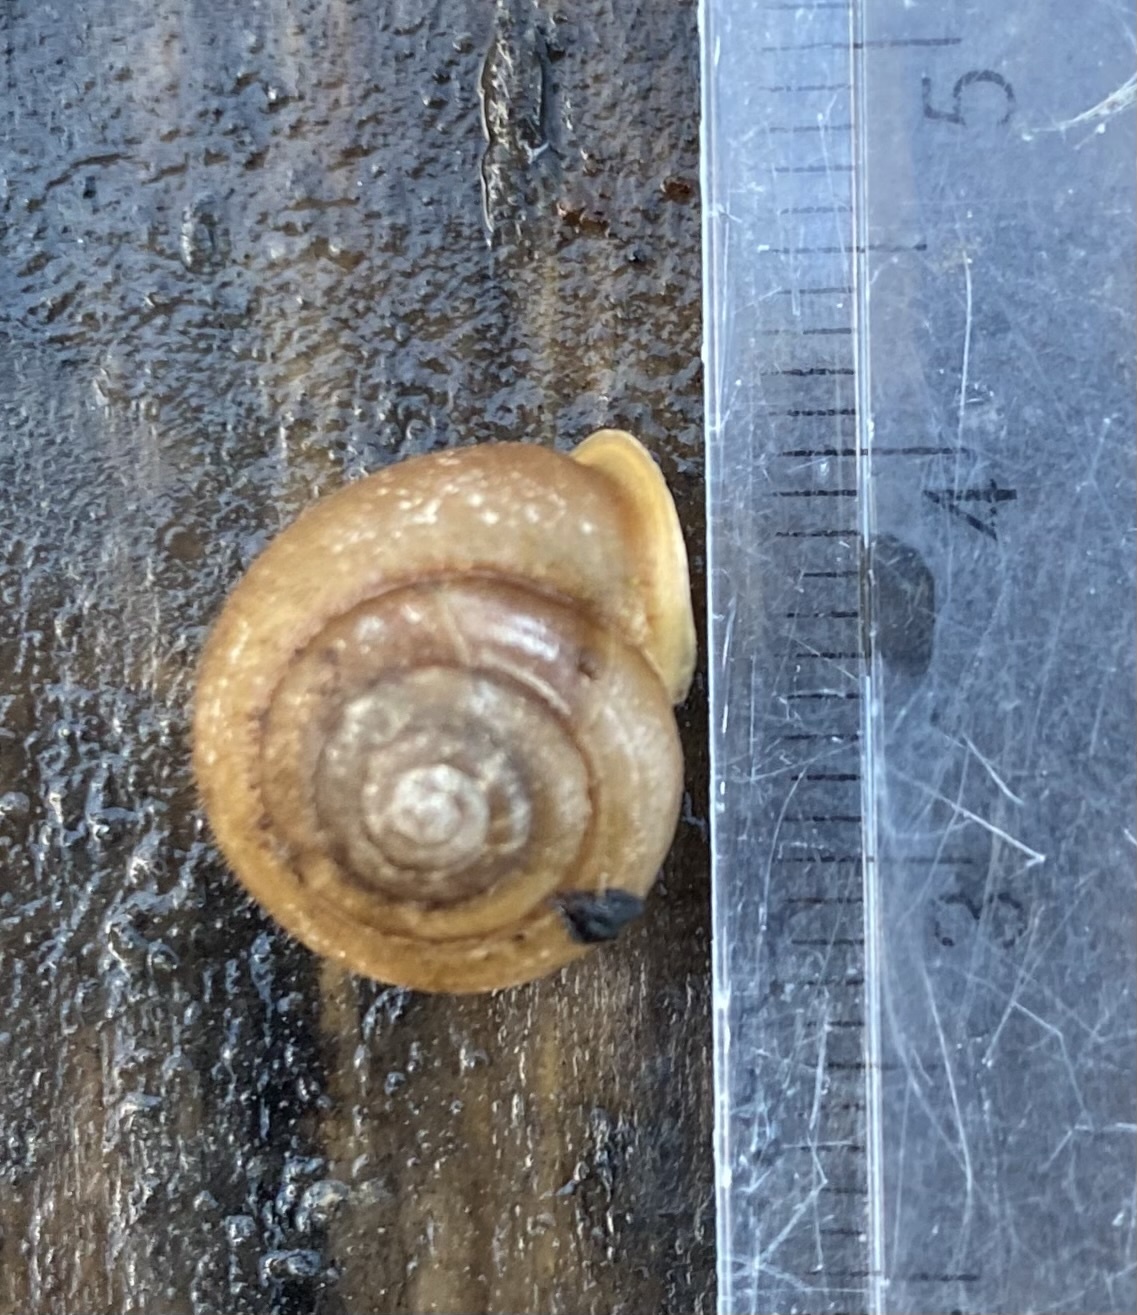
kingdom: Animalia
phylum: Mollusca
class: Gastropoda
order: Stylommatophora
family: Polygyridae
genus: Vespericola
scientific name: Vespericola columbianus
